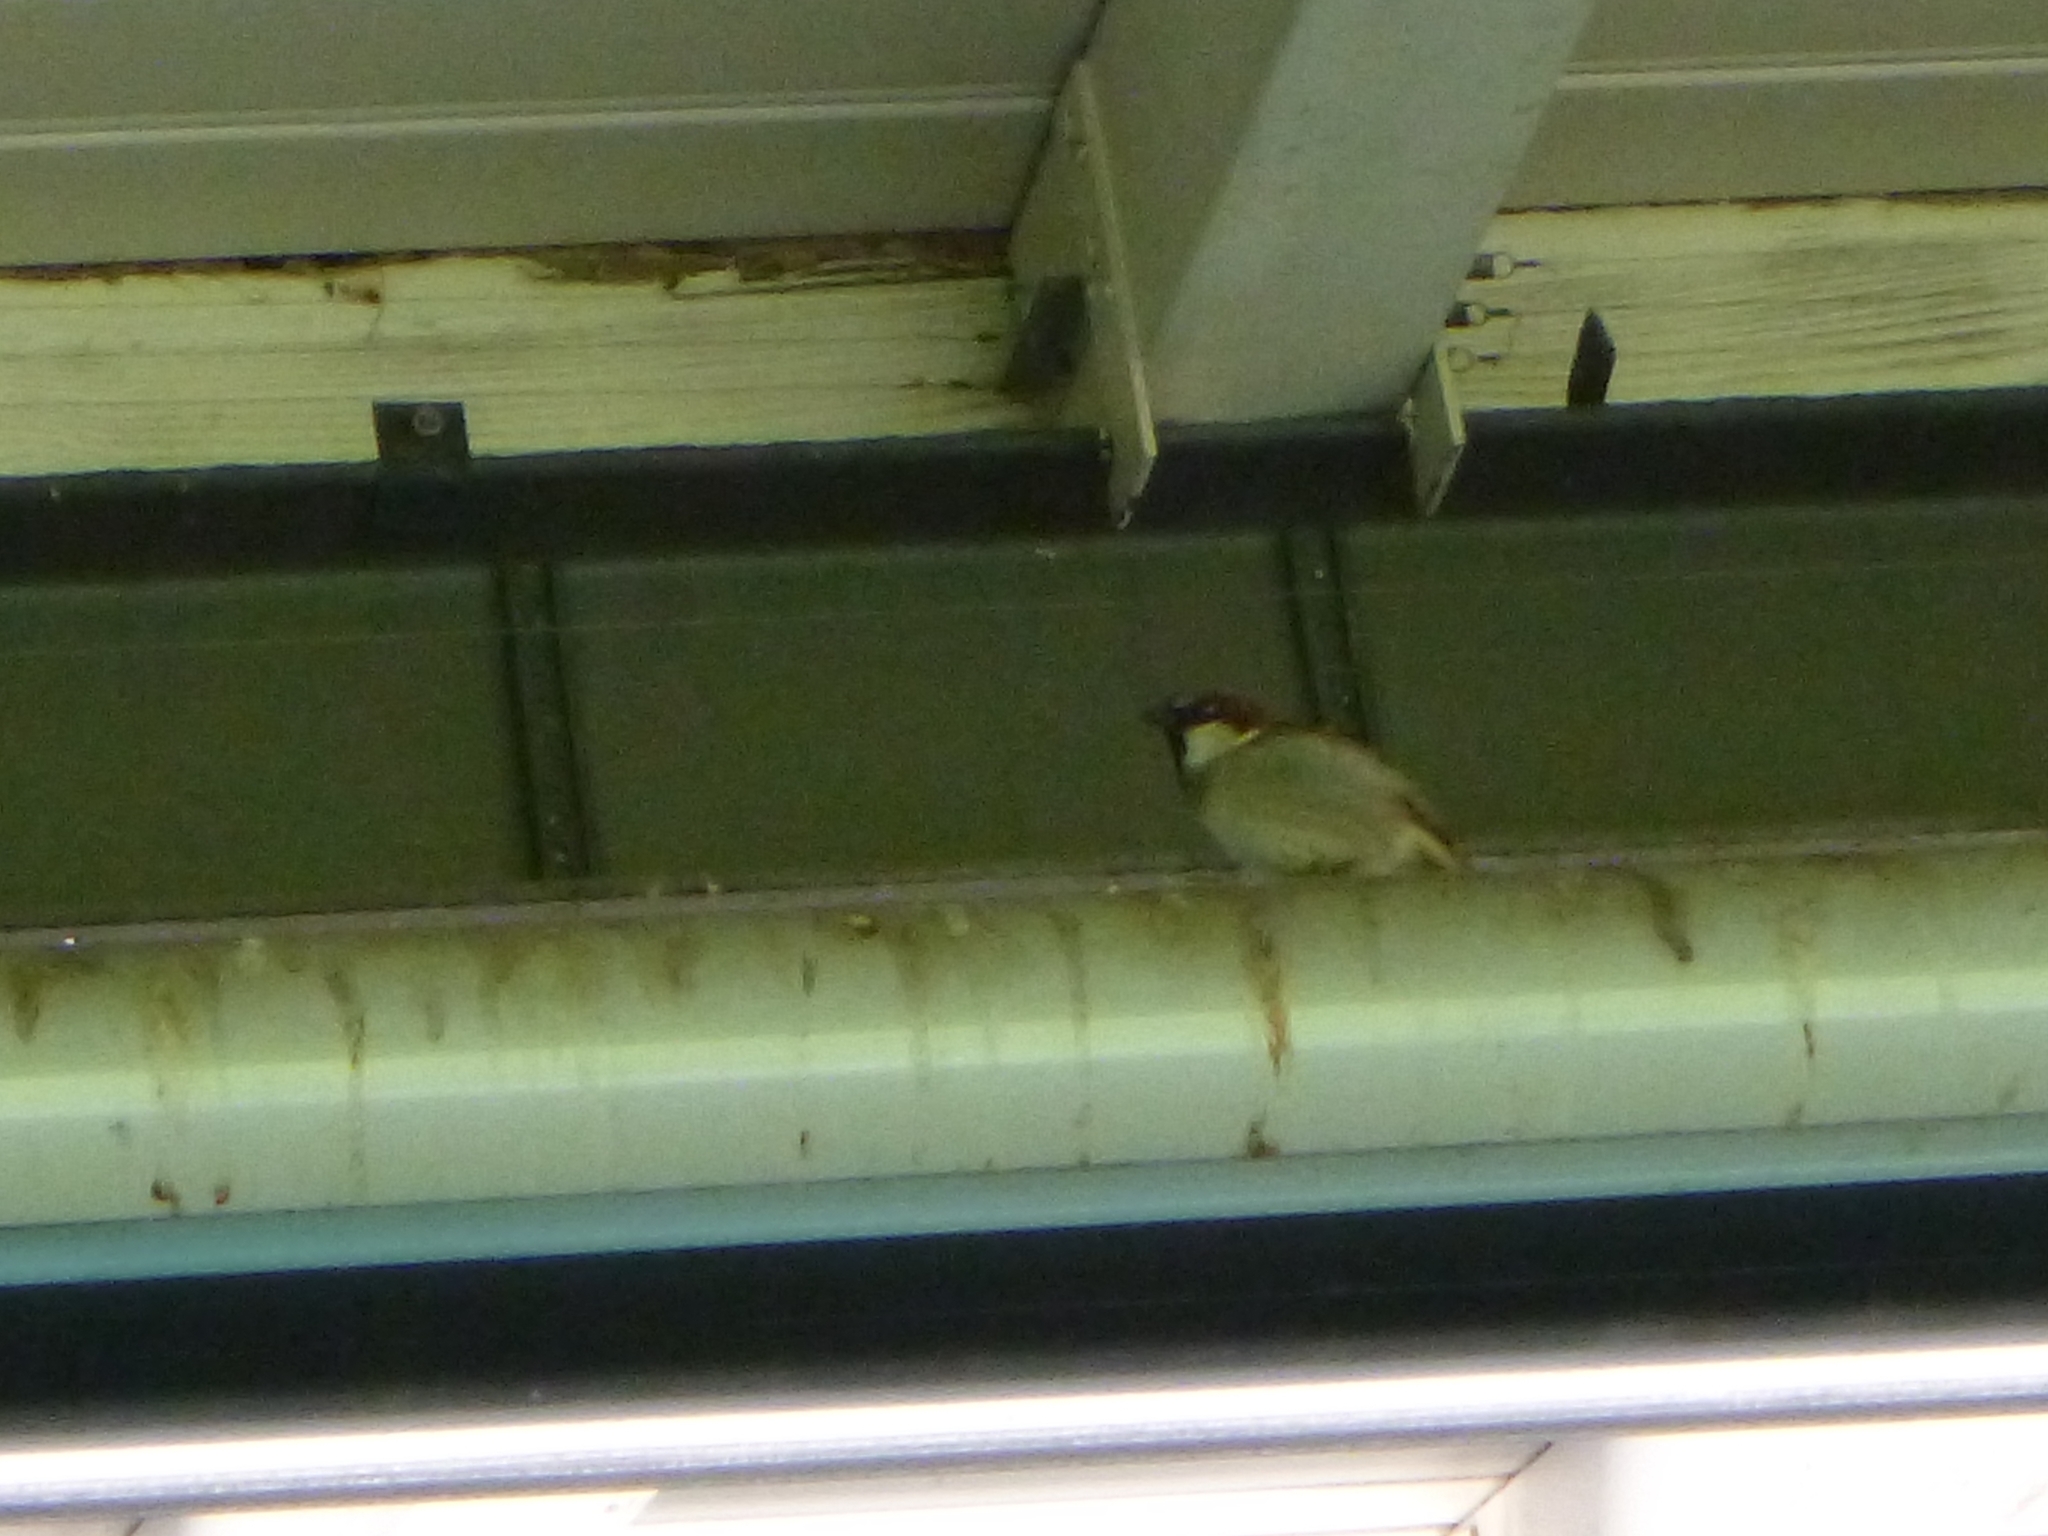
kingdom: Animalia
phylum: Chordata
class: Aves
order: Passeriformes
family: Passeridae
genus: Passer
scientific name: Passer domesticus
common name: House sparrow
